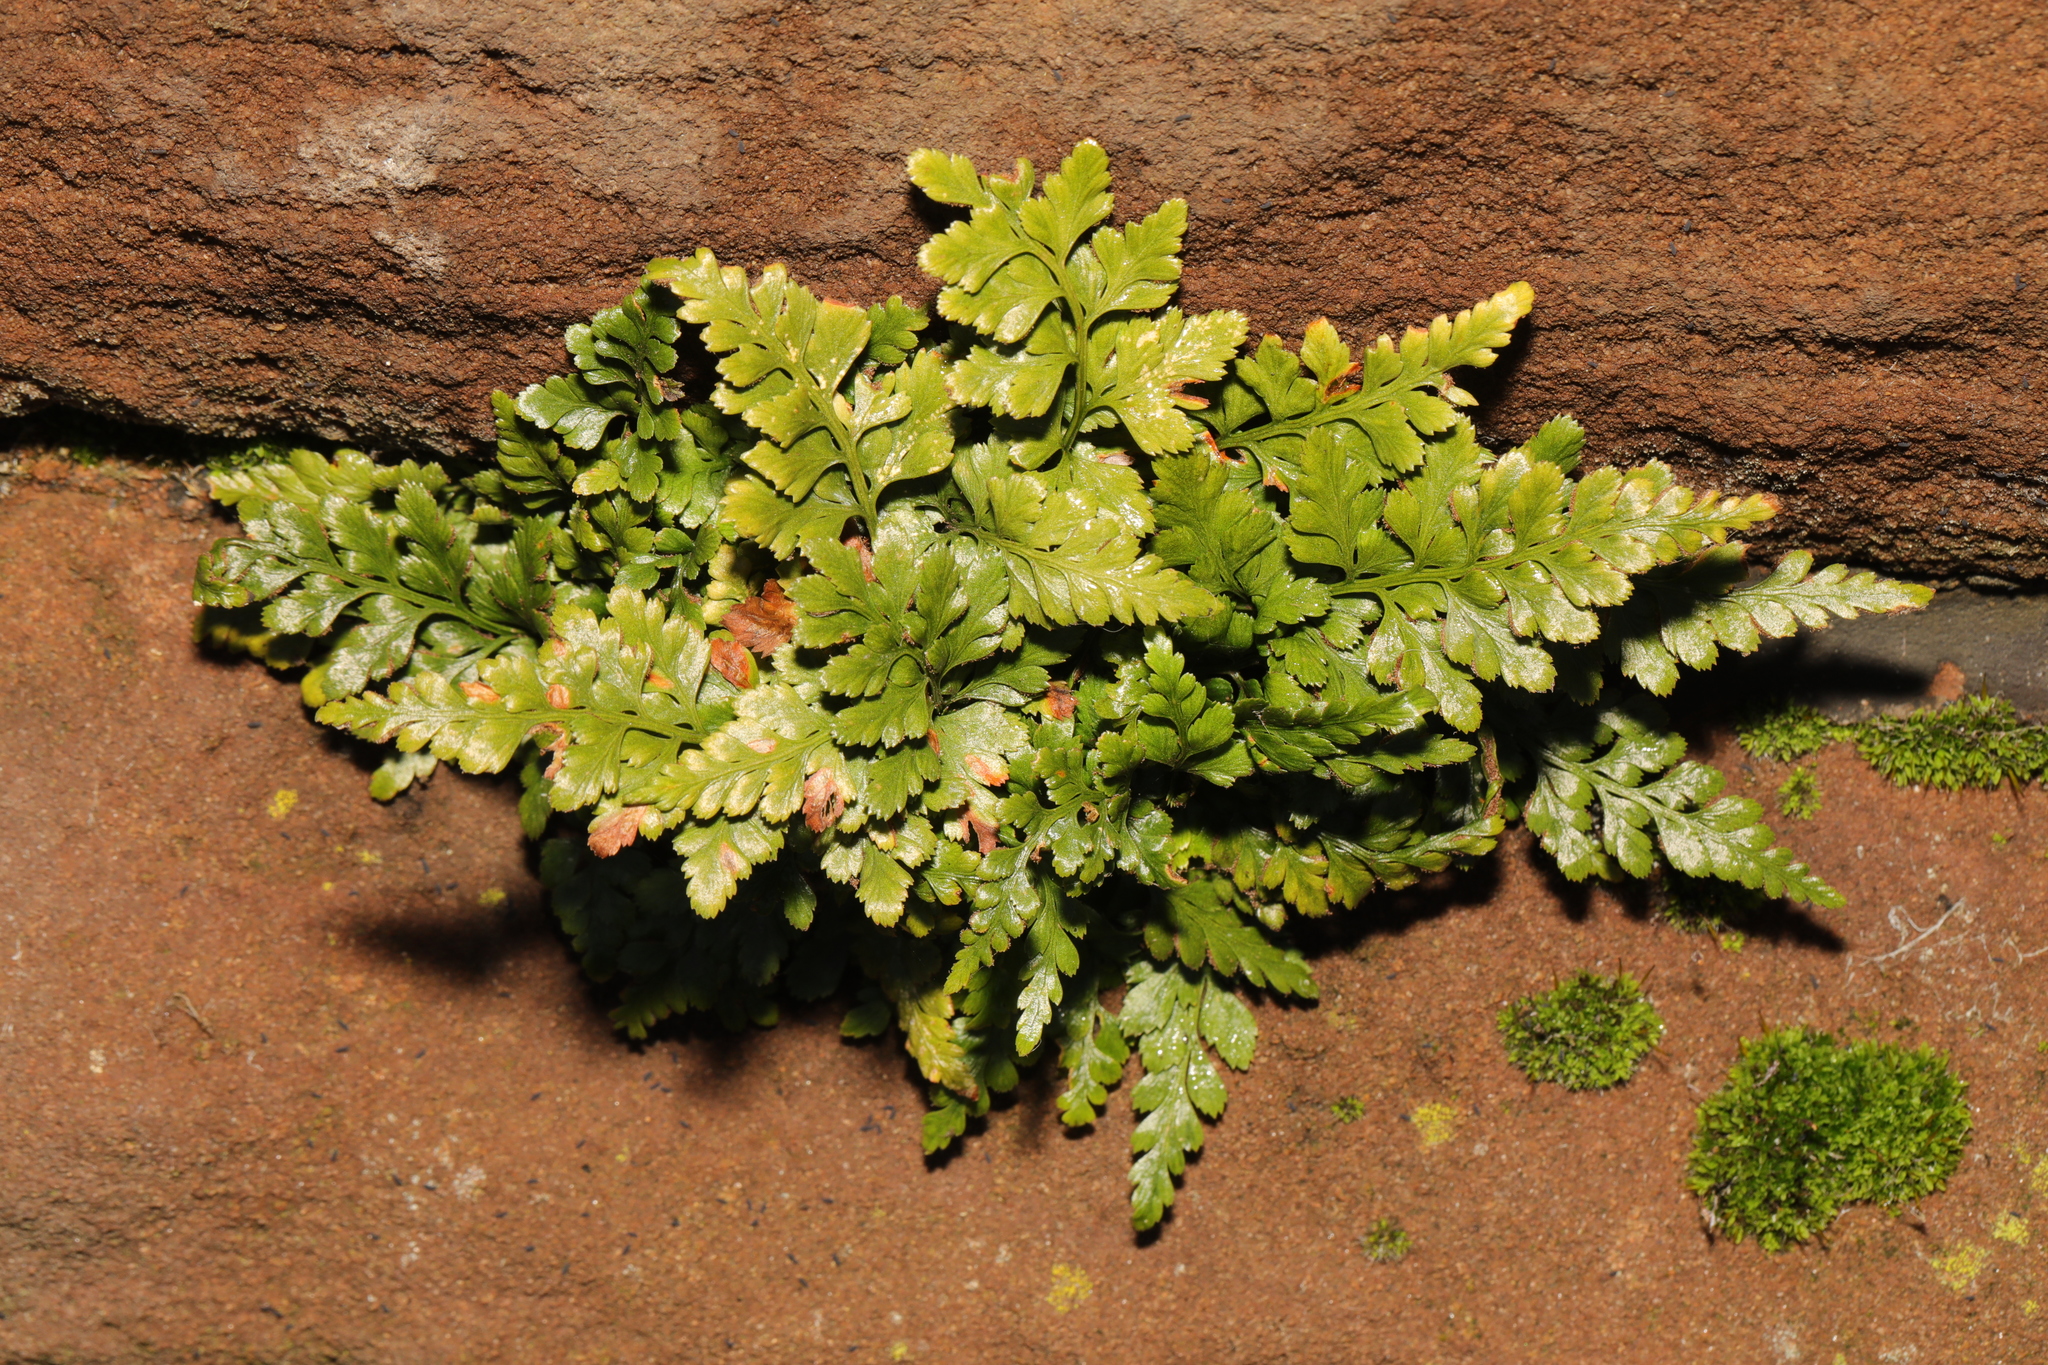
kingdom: Plantae
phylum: Tracheophyta
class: Polypodiopsida
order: Polypodiales
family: Aspleniaceae
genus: Asplenium
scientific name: Asplenium adiantum-nigrum
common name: Black spleenwort
